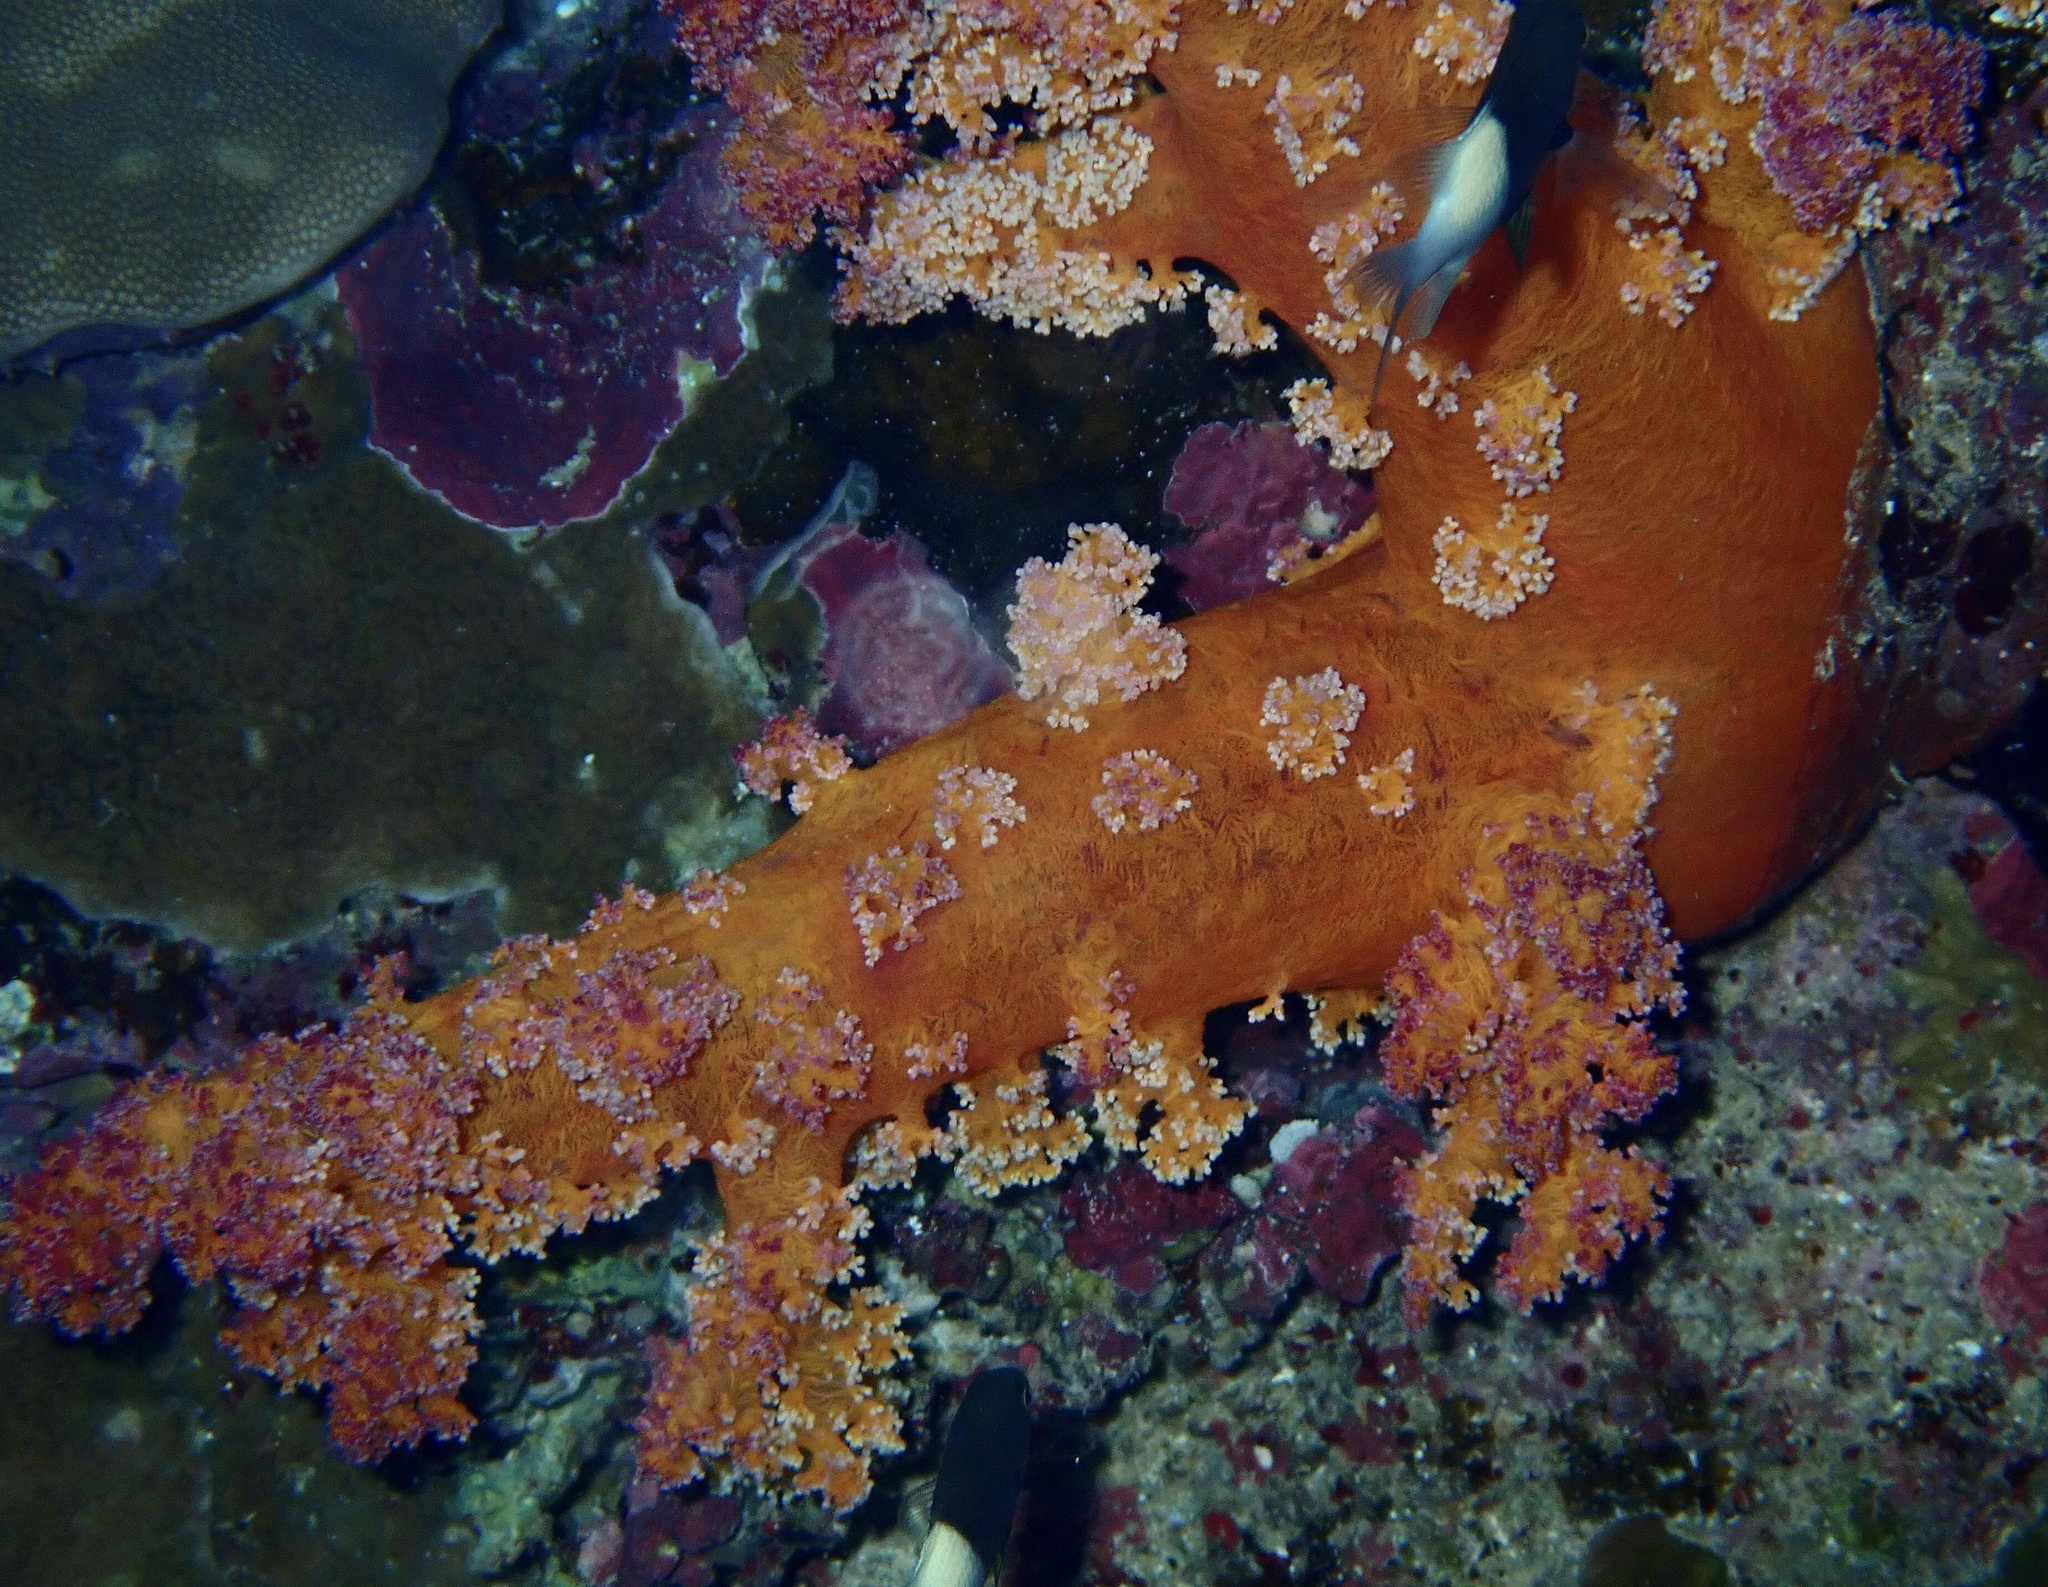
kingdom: Animalia
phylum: Cnidaria
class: Anthozoa
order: Malacalcyonacea
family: Nephtheidae
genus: Dendronephthya
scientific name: Dendronephthya hemprichi
